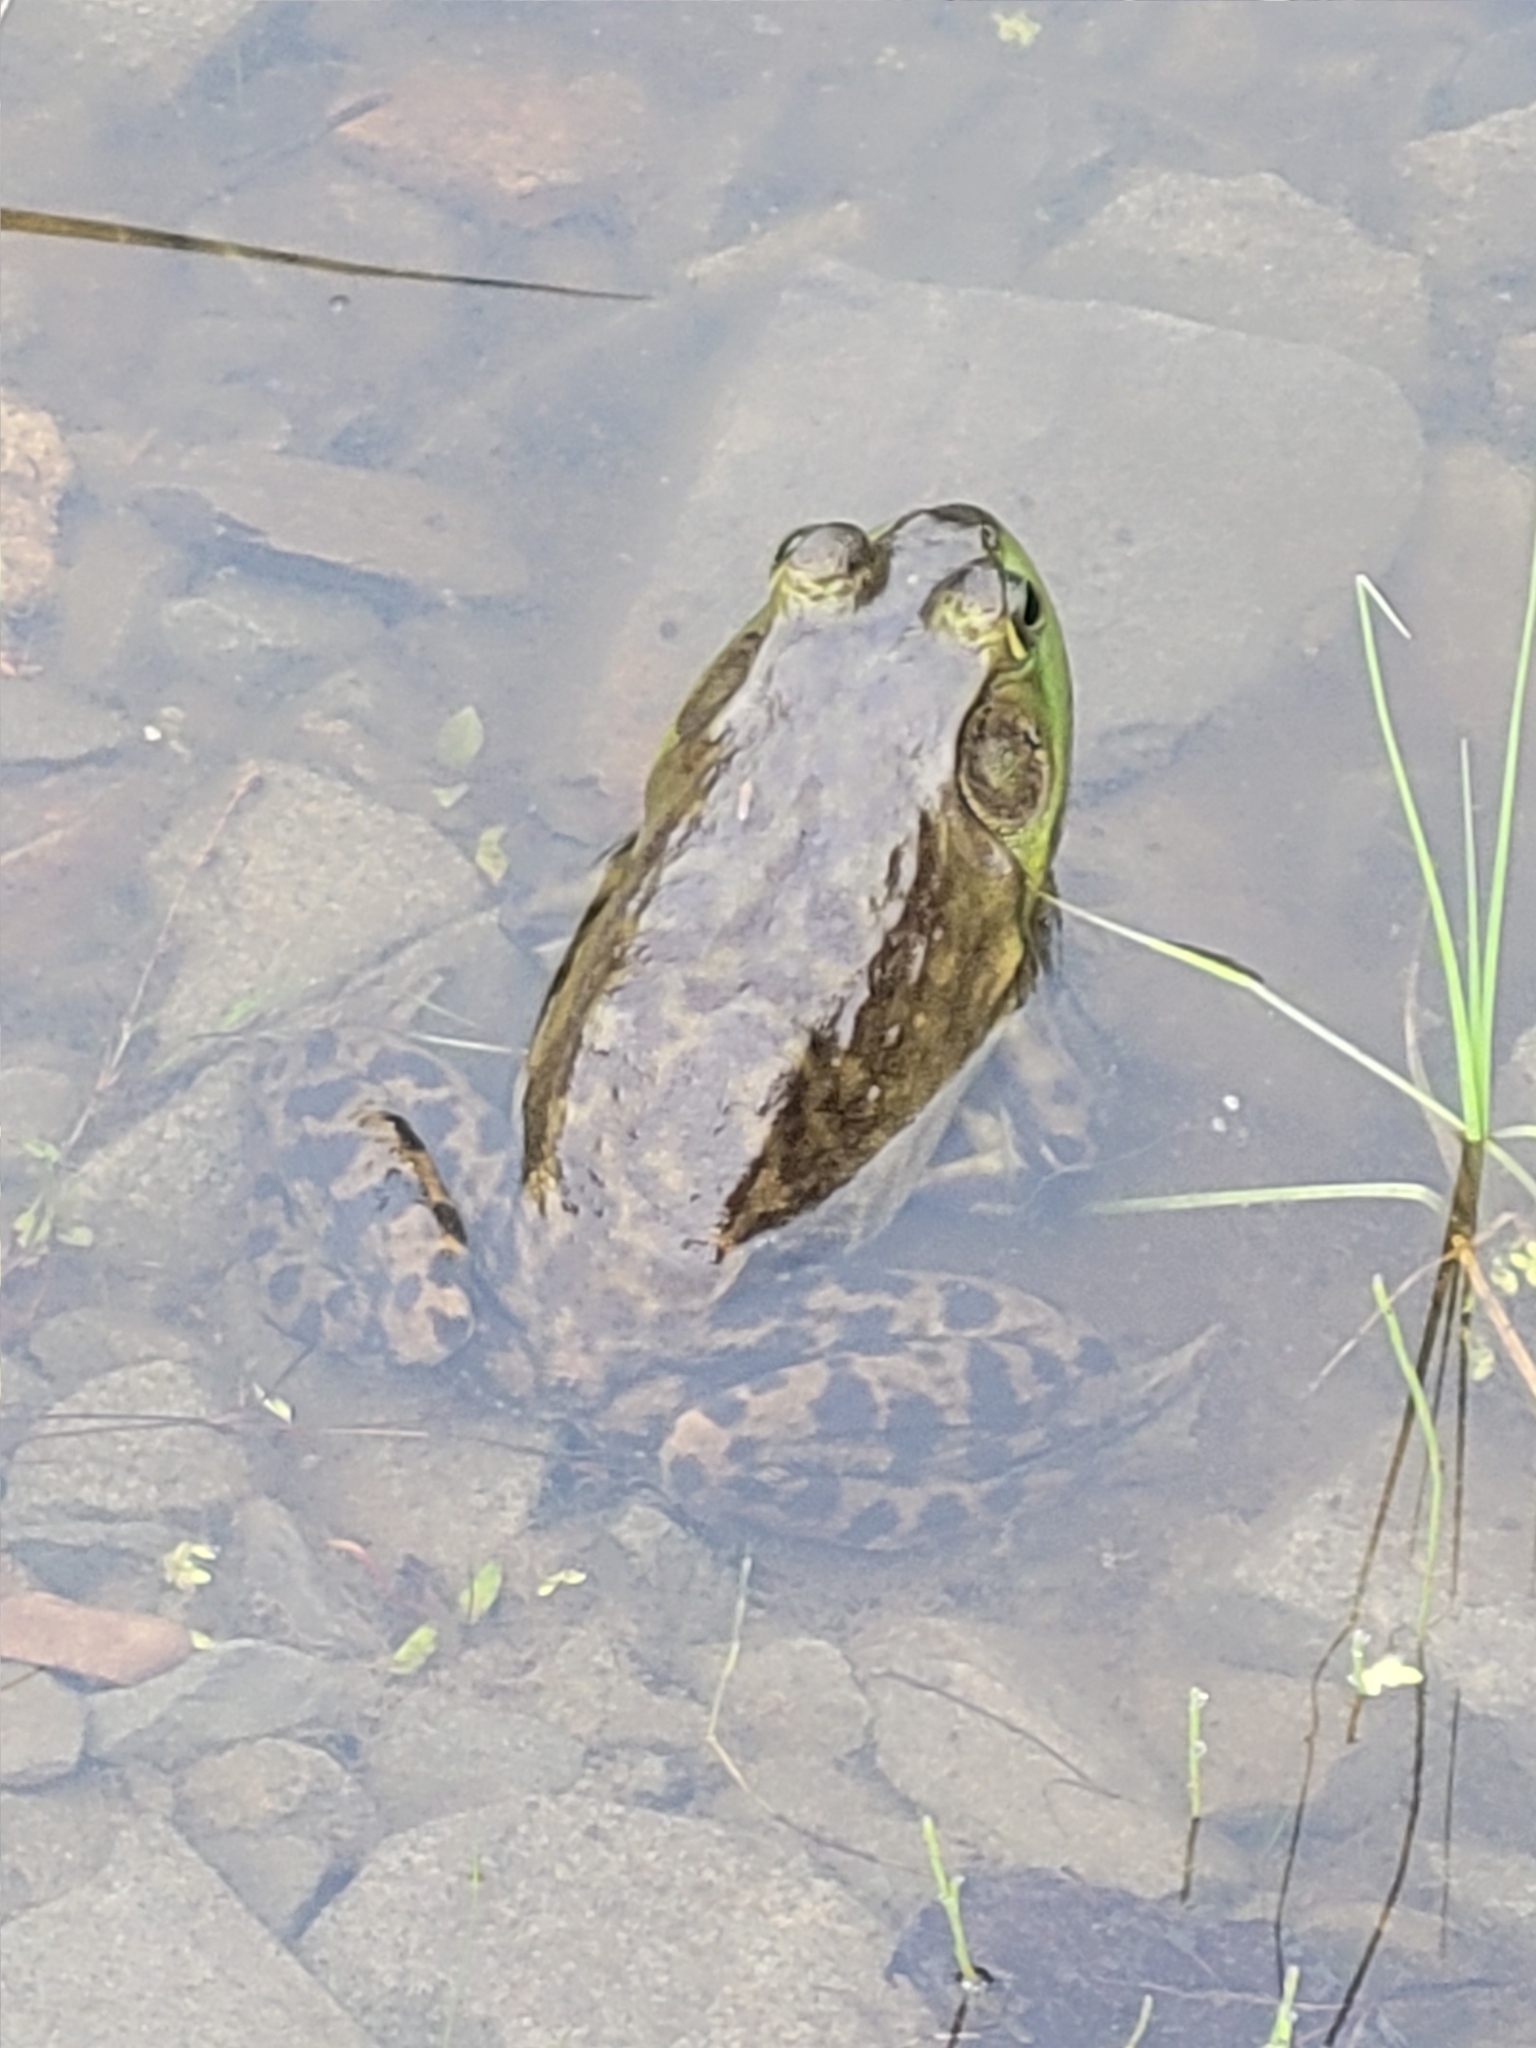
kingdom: Animalia
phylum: Chordata
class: Amphibia
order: Anura
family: Ranidae
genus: Lithobates
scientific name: Lithobates catesbeianus
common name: American bullfrog
